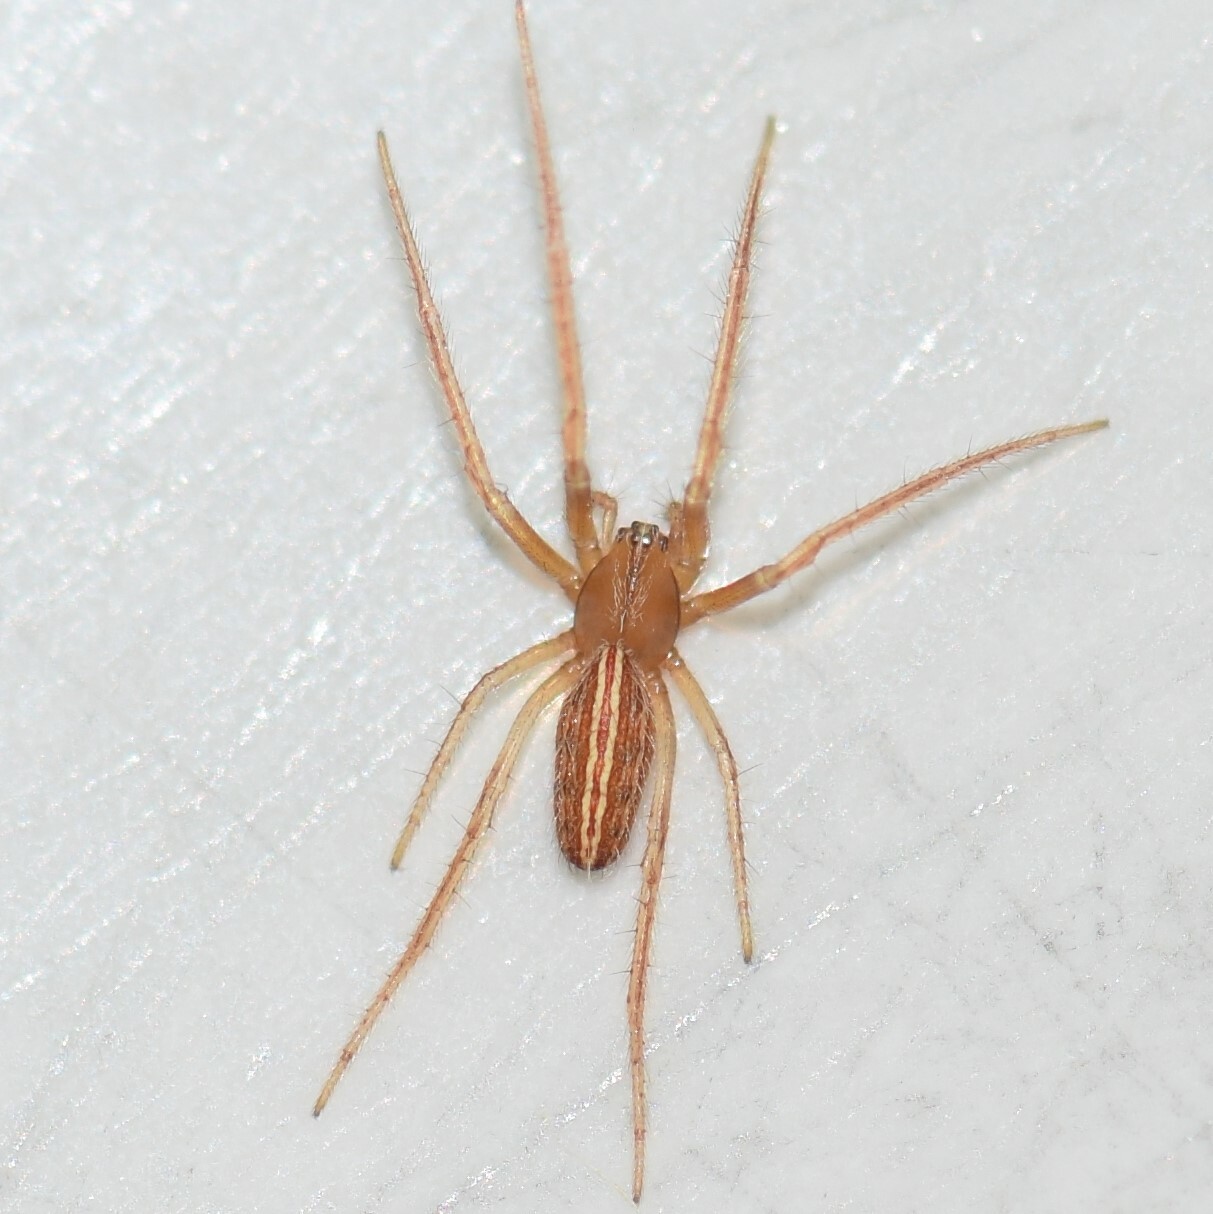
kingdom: Animalia
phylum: Arthropoda
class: Arachnida
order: Araneae
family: Araneidae
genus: Larinia
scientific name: Larinia directa
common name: Orb weavers
